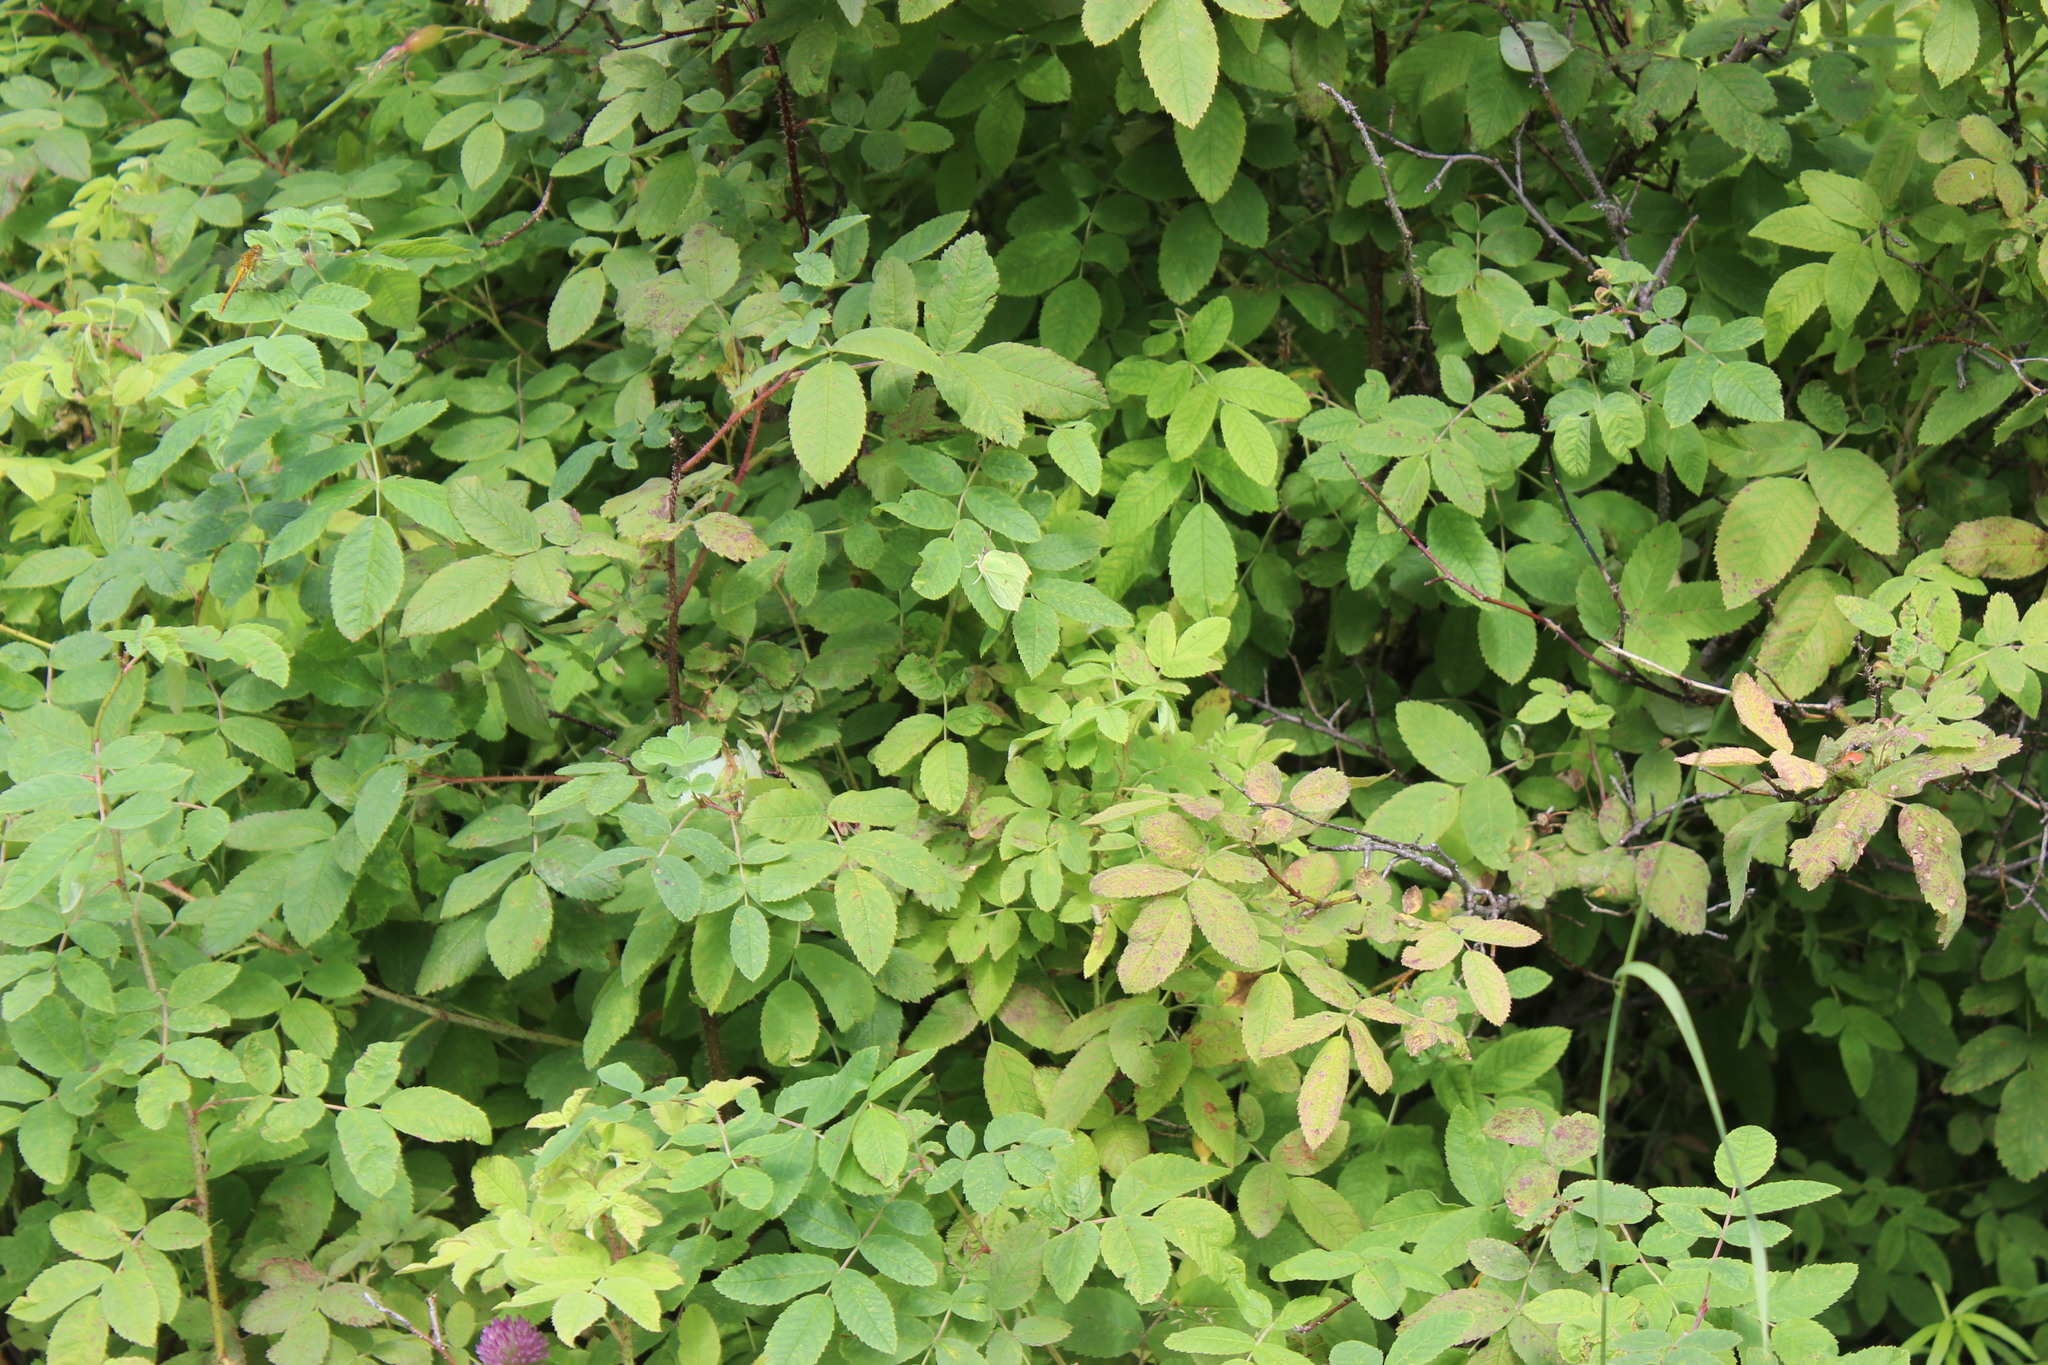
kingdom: Plantae
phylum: Tracheophyta
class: Magnoliopsida
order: Rosales
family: Rosaceae
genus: Rosa
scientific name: Rosa acicularis
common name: Prickly rose
